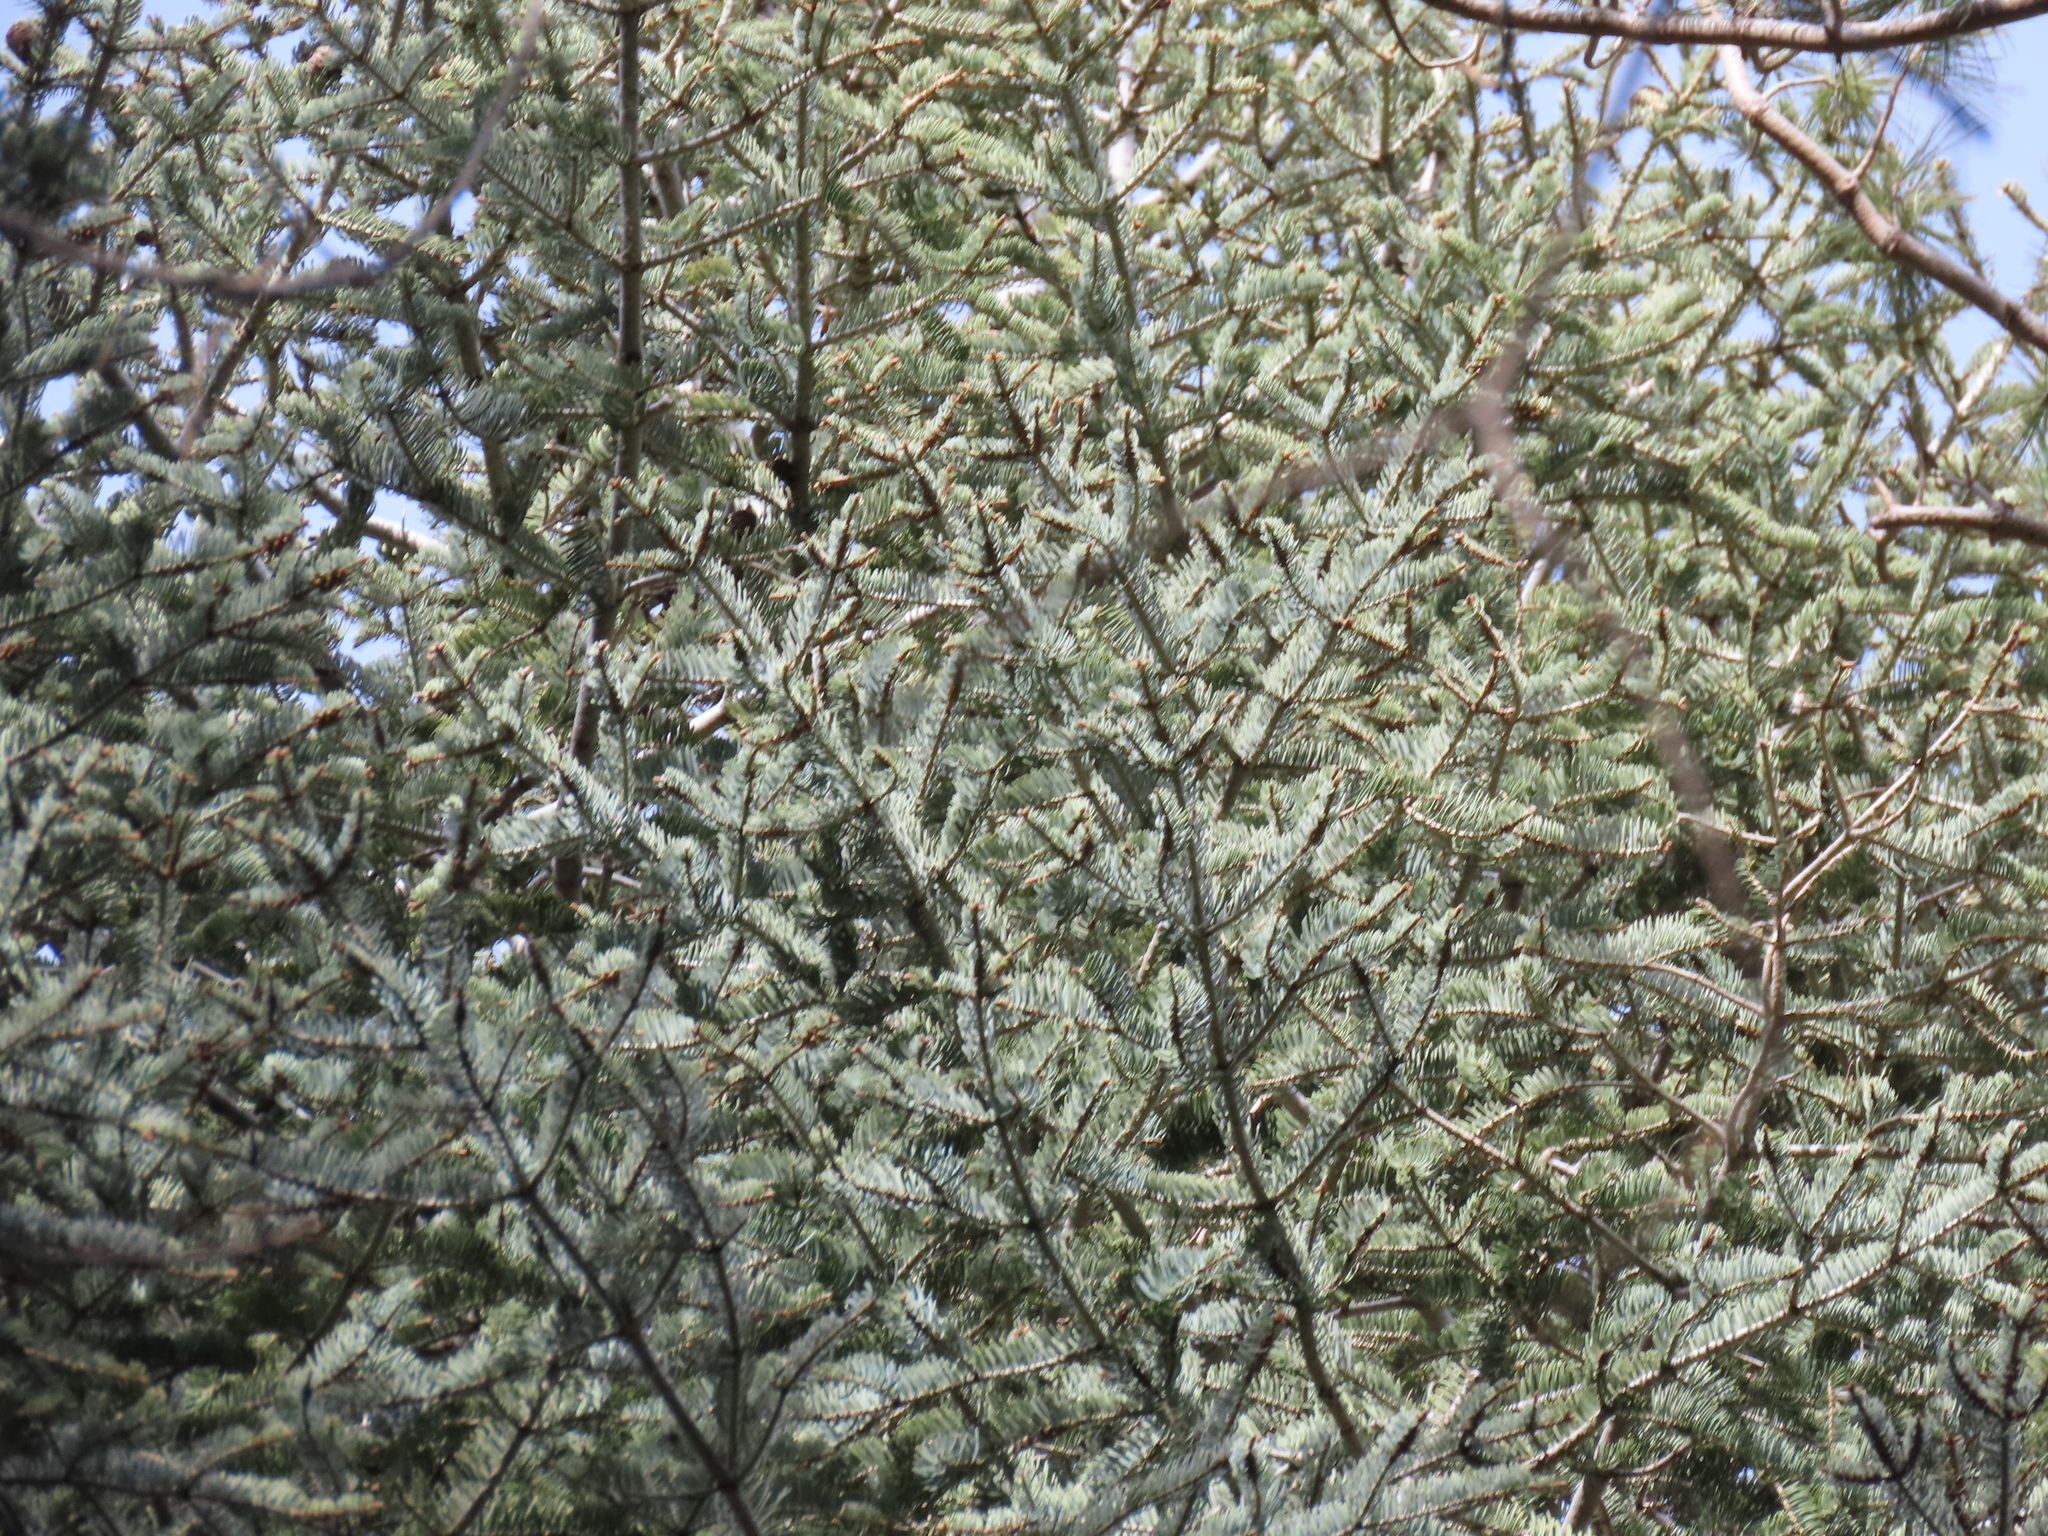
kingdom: Plantae
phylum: Tracheophyta
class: Pinopsida
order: Pinales
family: Pinaceae
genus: Abies
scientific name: Abies concolor
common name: Colorado fir
